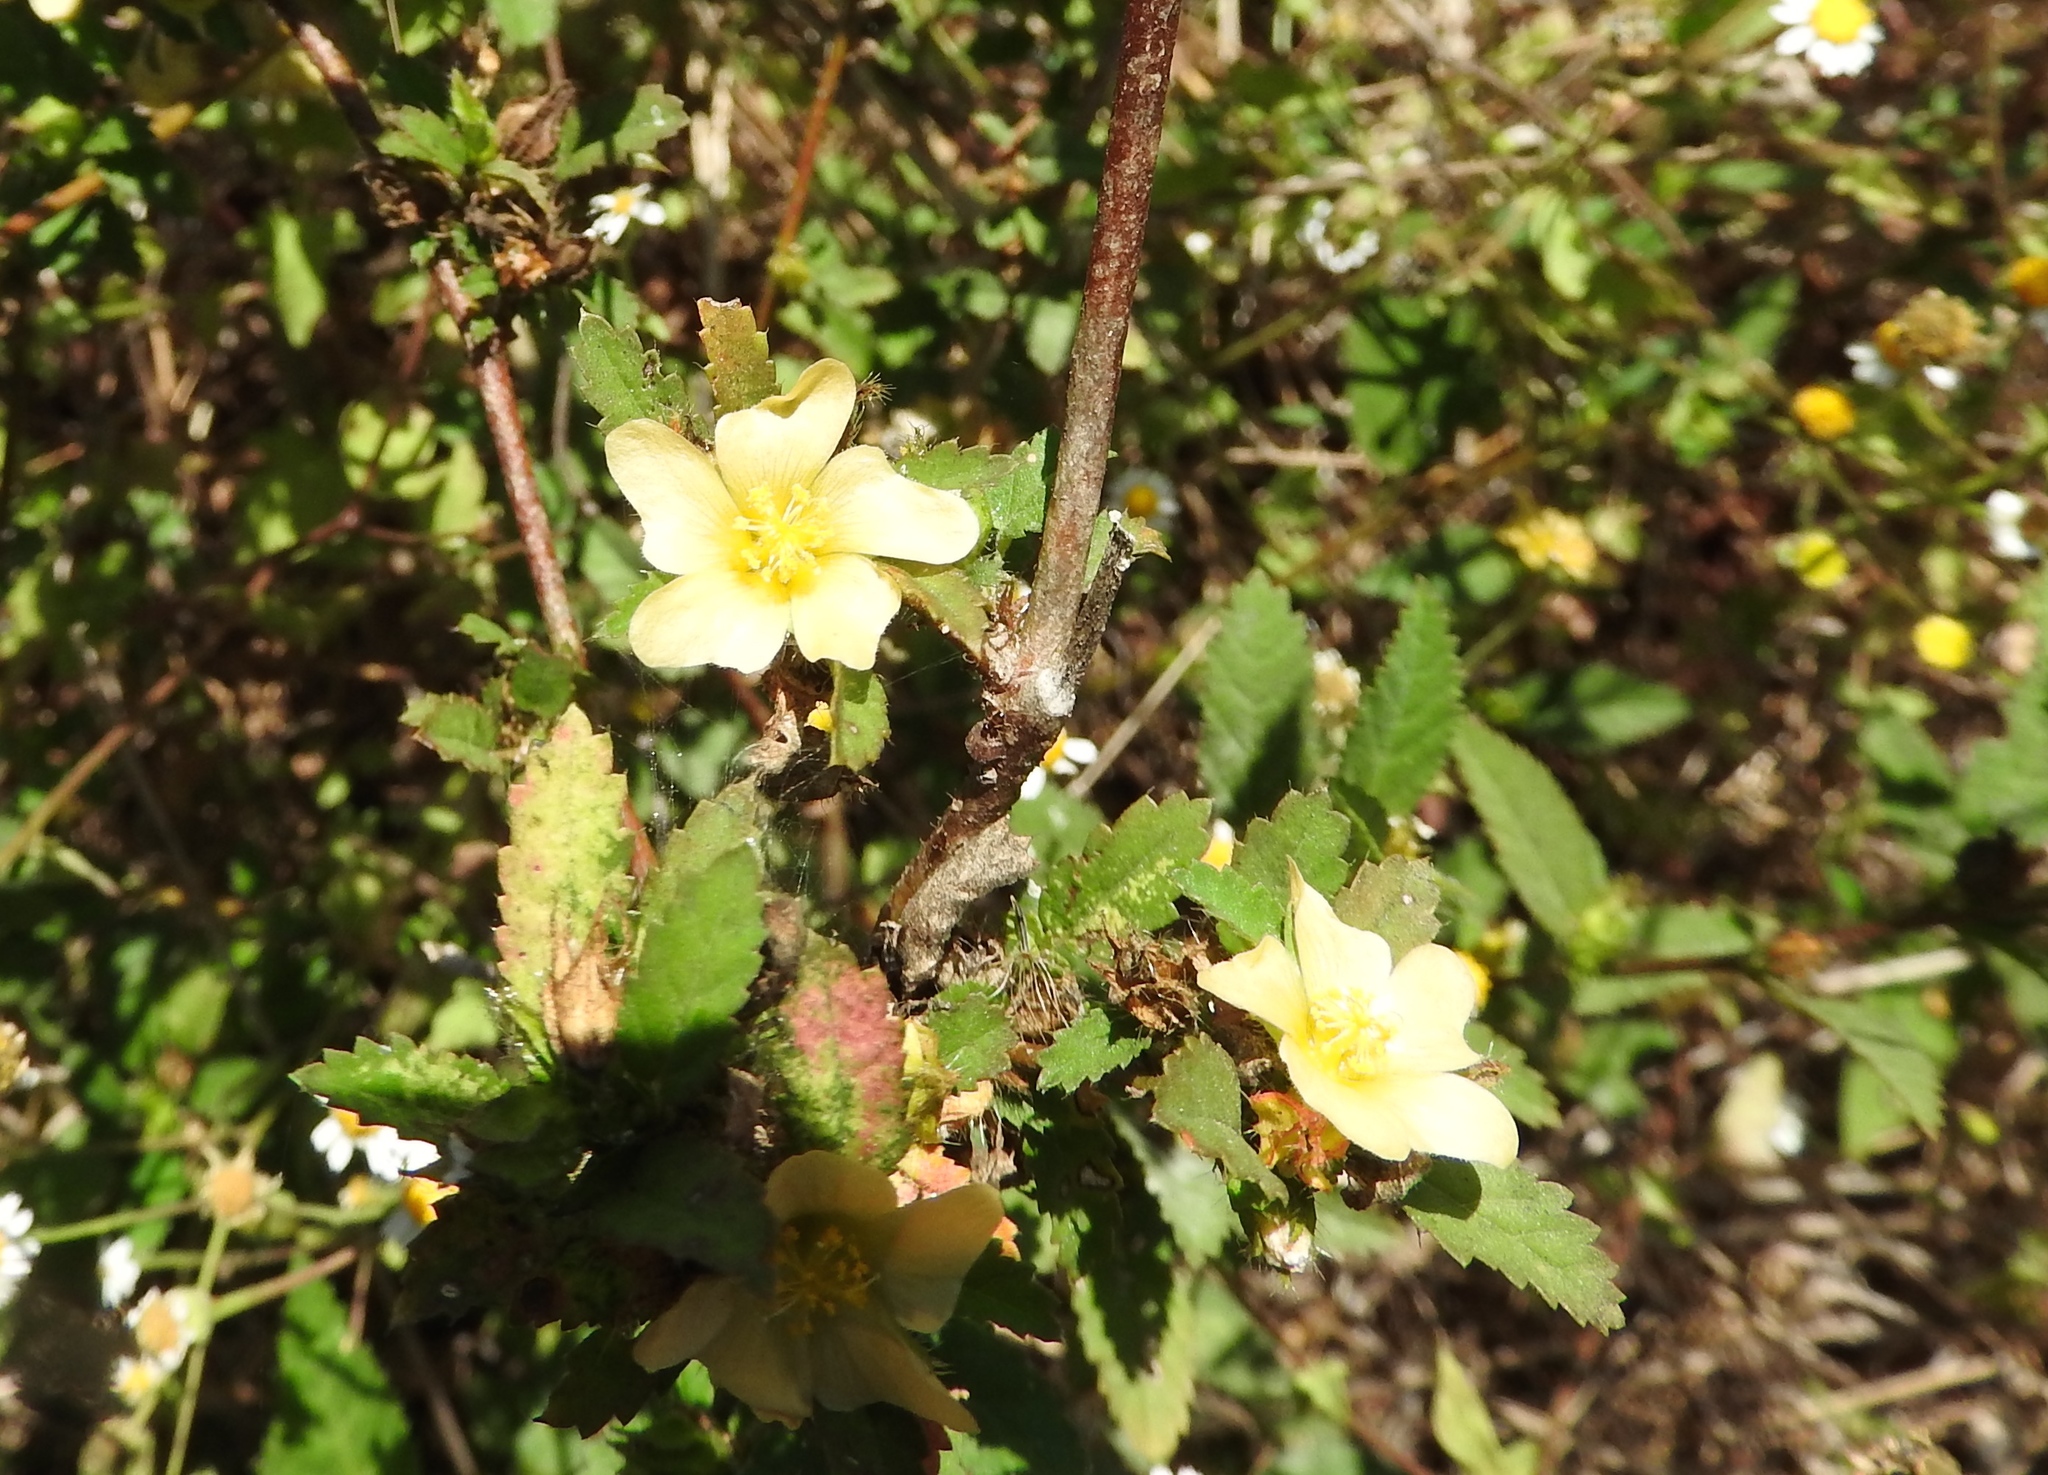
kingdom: Plantae
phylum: Tracheophyta
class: Magnoliopsida
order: Malvales
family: Malvaceae
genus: Malvastrum
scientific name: Malvastrum coromandelianum
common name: Threelobe false mallow
